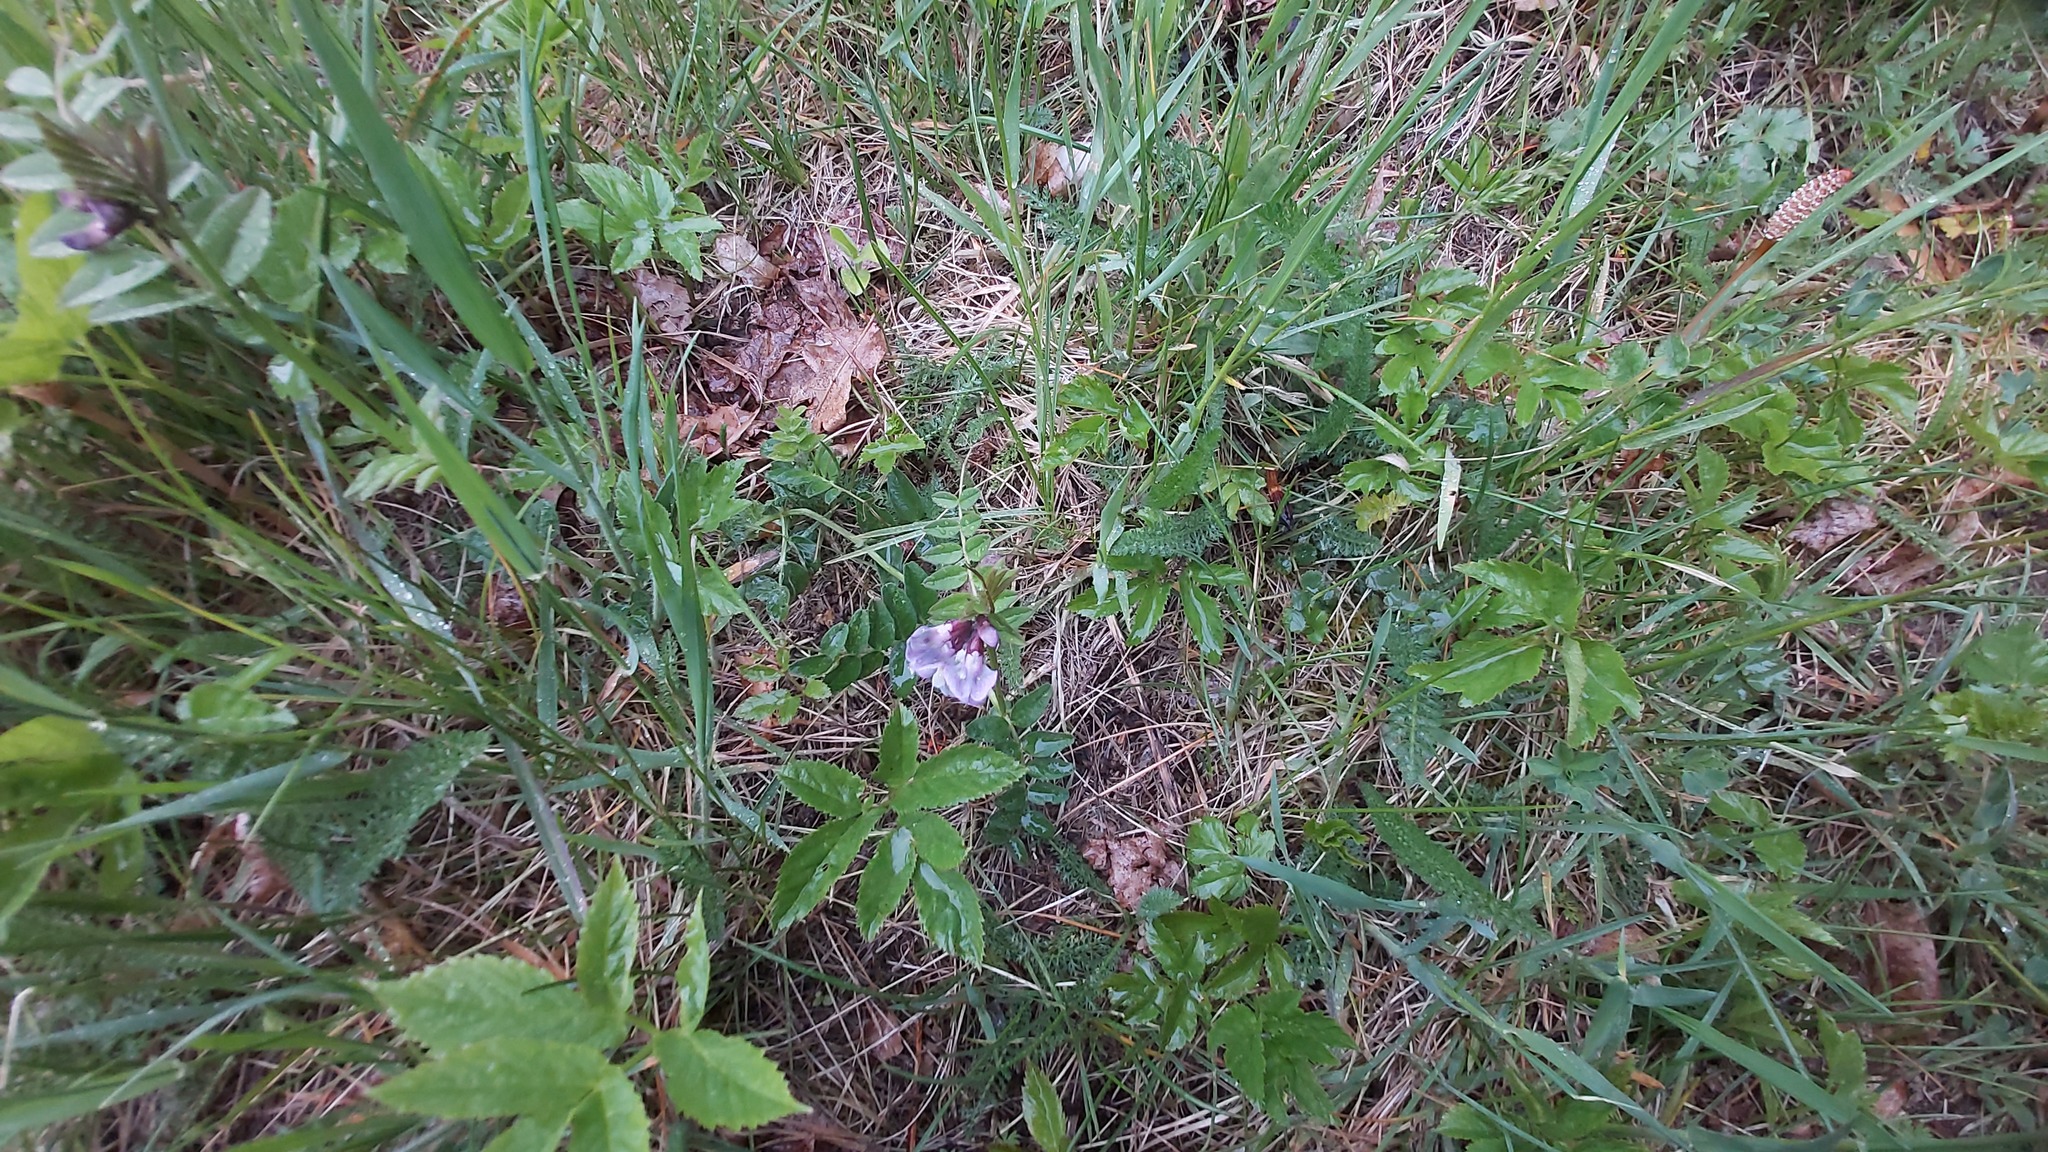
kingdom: Plantae
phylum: Tracheophyta
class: Magnoliopsida
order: Fabales
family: Fabaceae
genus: Vicia
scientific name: Vicia sepium
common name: Bush vetch
